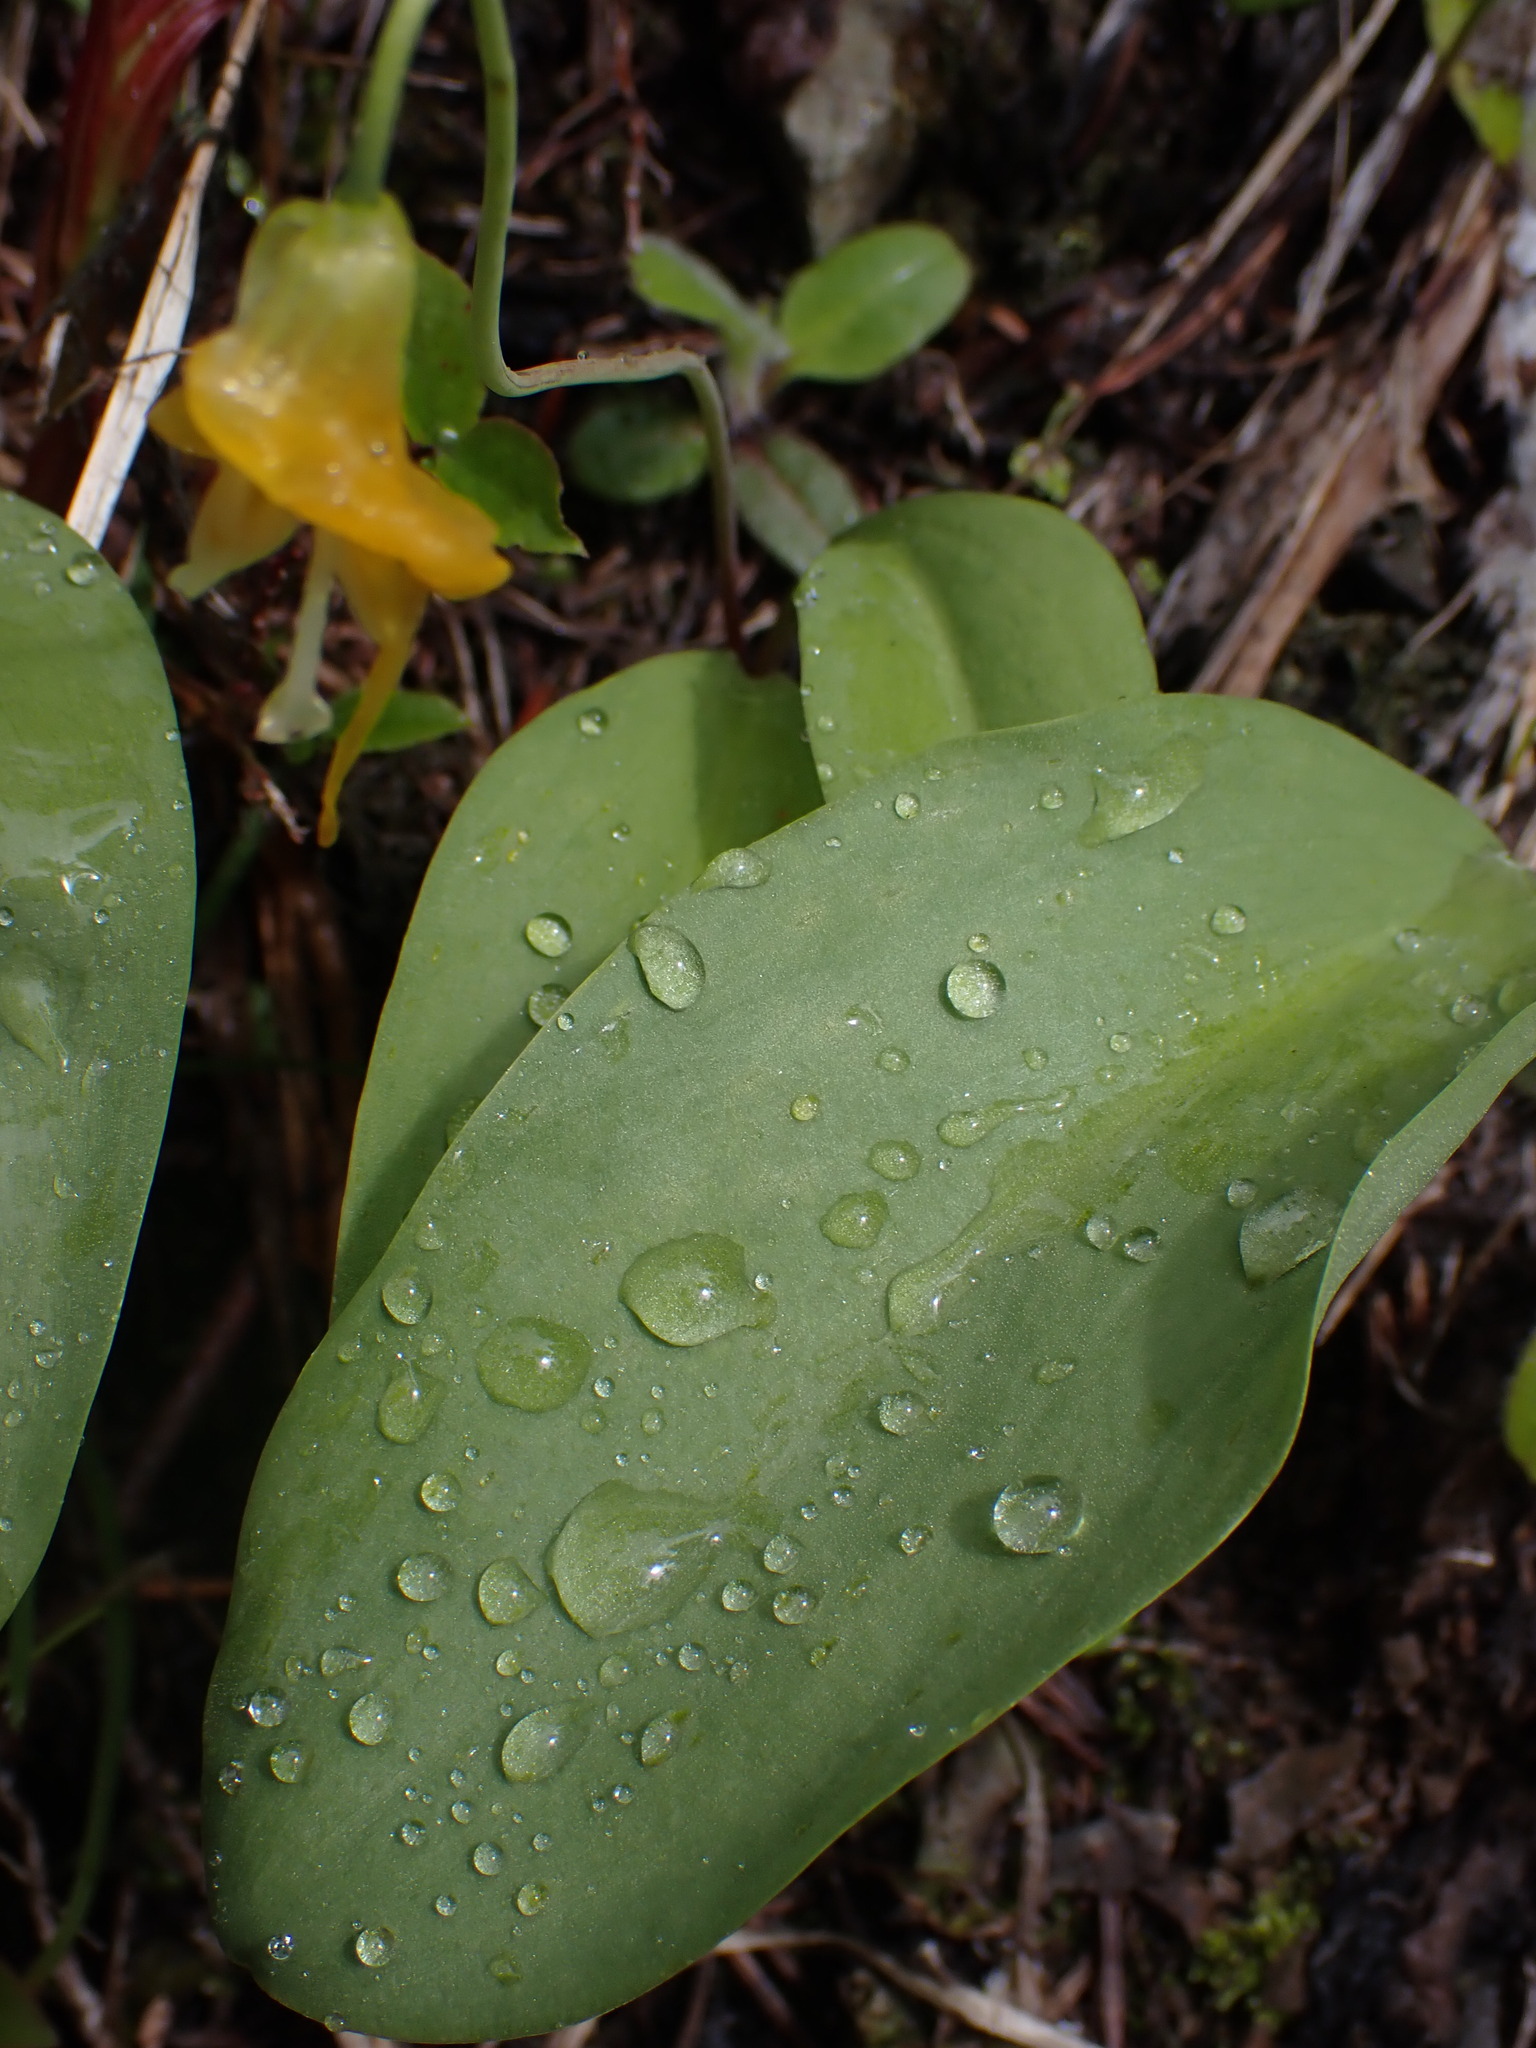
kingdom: Plantae
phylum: Tracheophyta
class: Liliopsida
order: Liliales
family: Liliaceae
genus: Erythronium
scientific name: Erythronium grandiflorum
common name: Avalanche-lily
